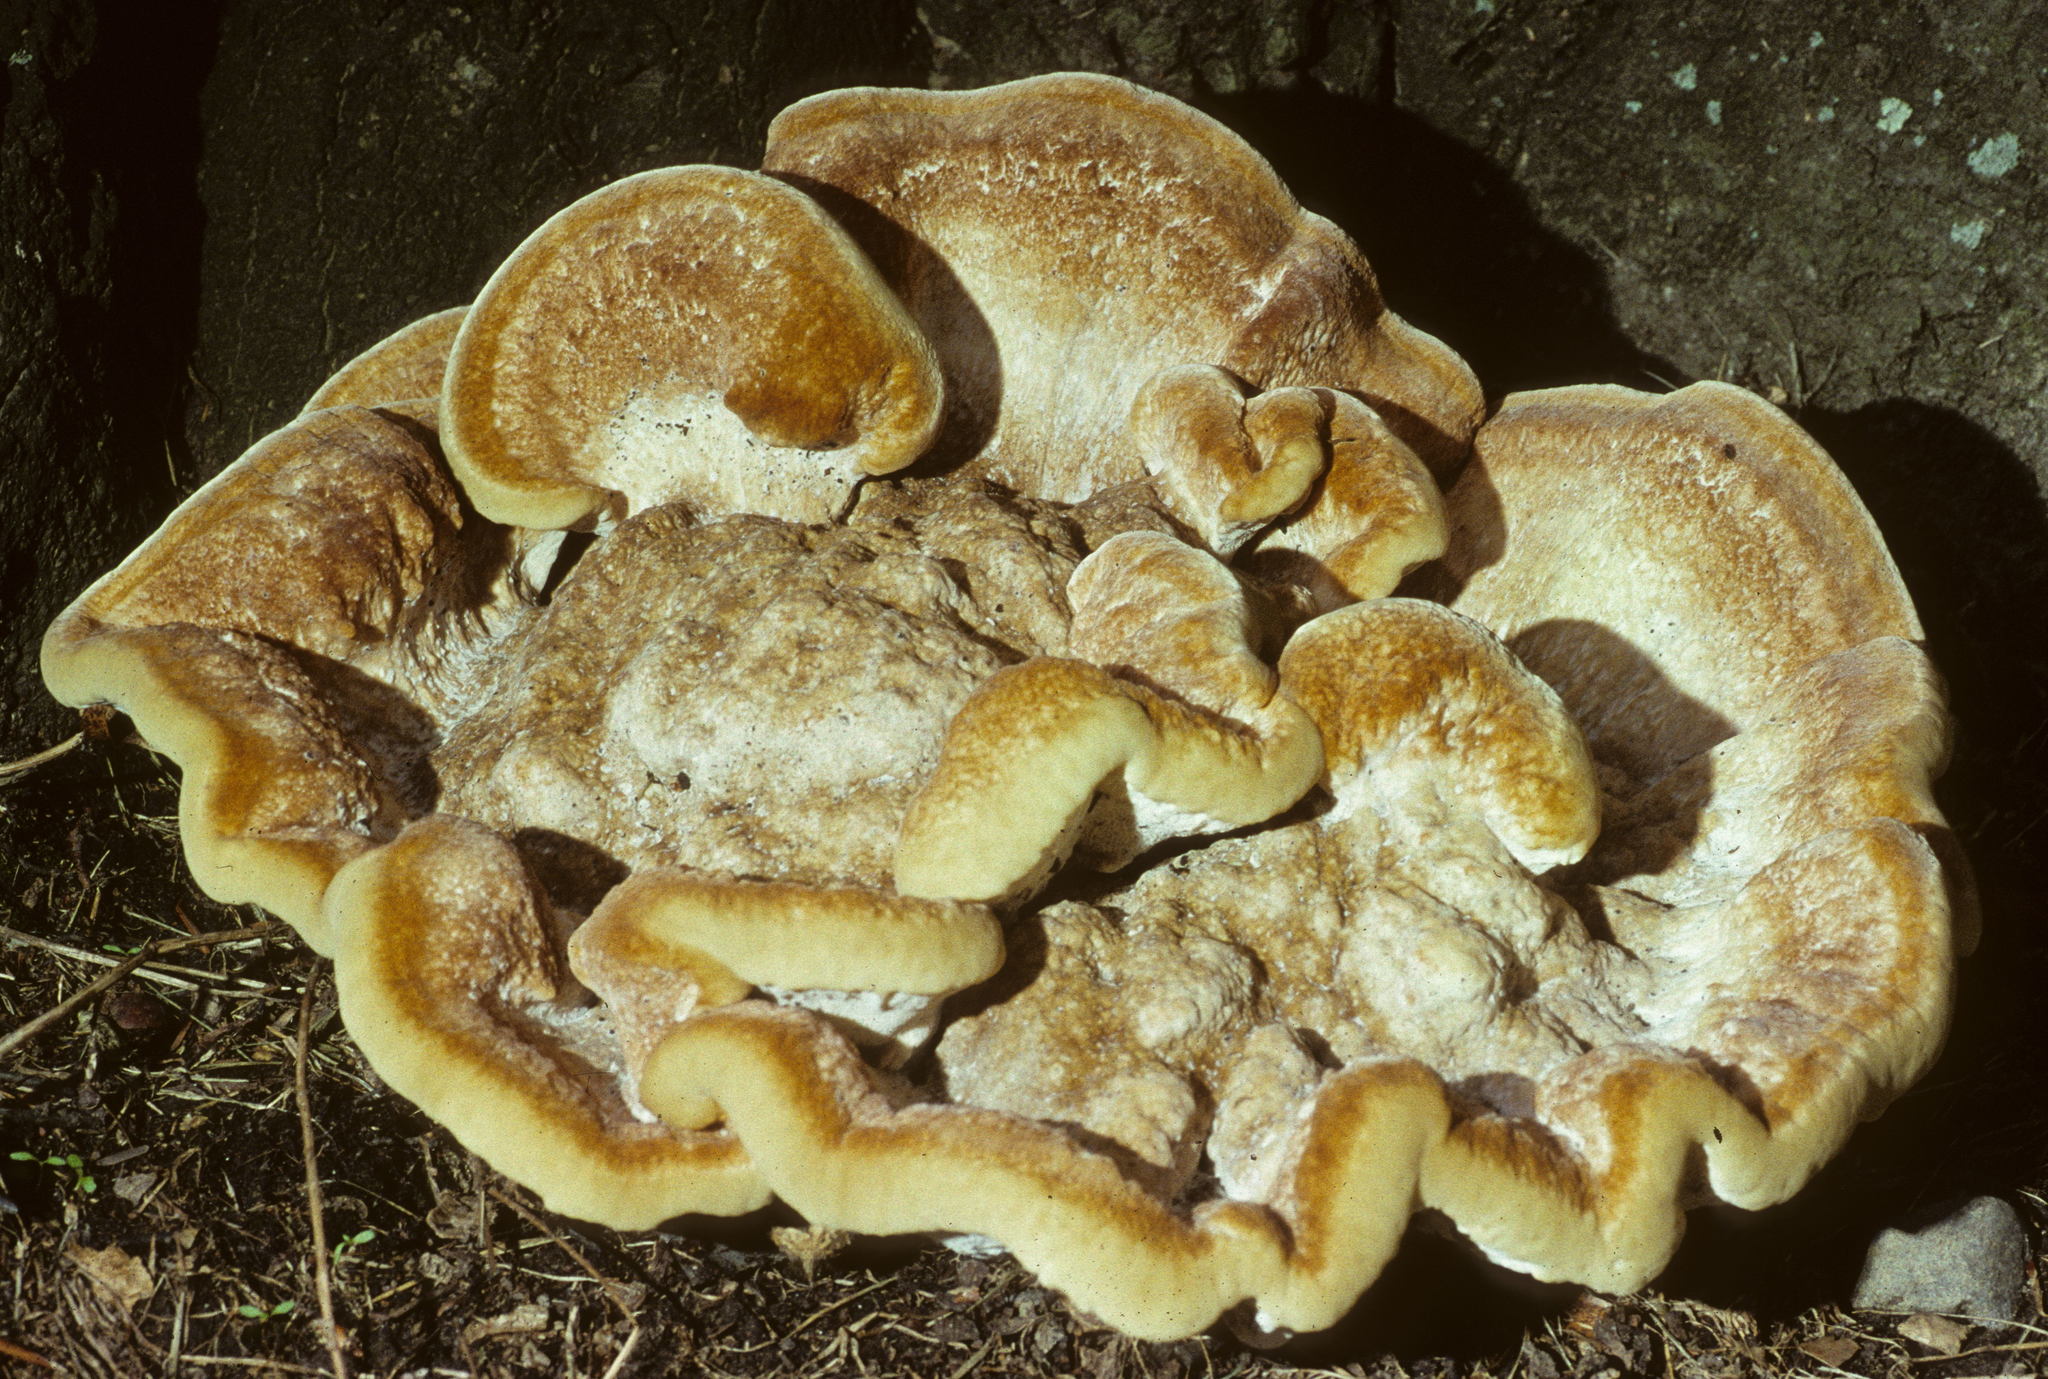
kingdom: Fungi
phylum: Basidiomycota
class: Agaricomycetes
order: Russulales
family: Bondarzewiaceae
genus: Bondarzewia
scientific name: Bondarzewia berkeleyi
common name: Berkeley's polypore
